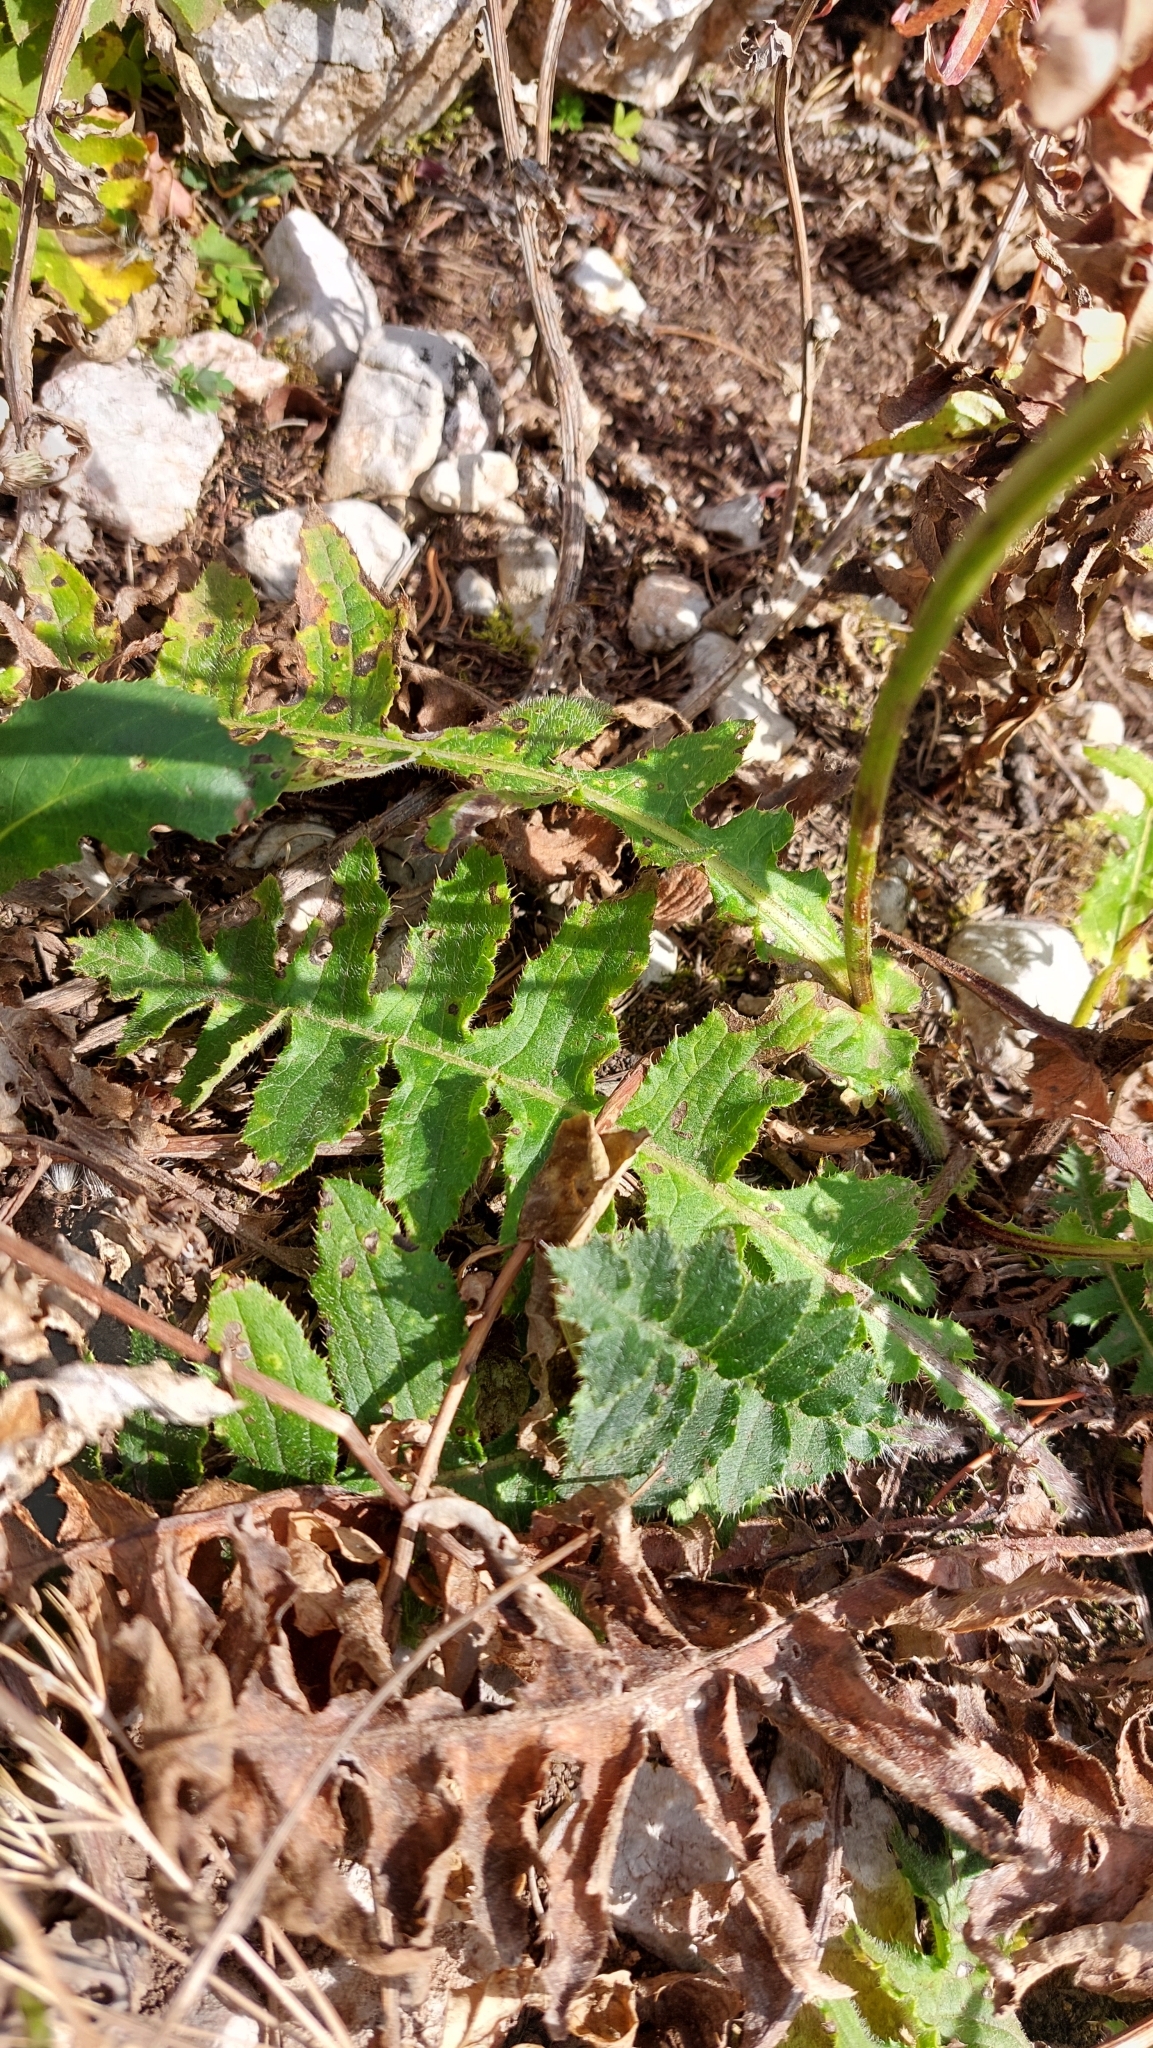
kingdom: Plantae
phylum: Tracheophyta
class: Magnoliopsida
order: Asterales
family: Asteraceae
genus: Cirsium
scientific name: Cirsium erisithales
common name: Yellow thistle
